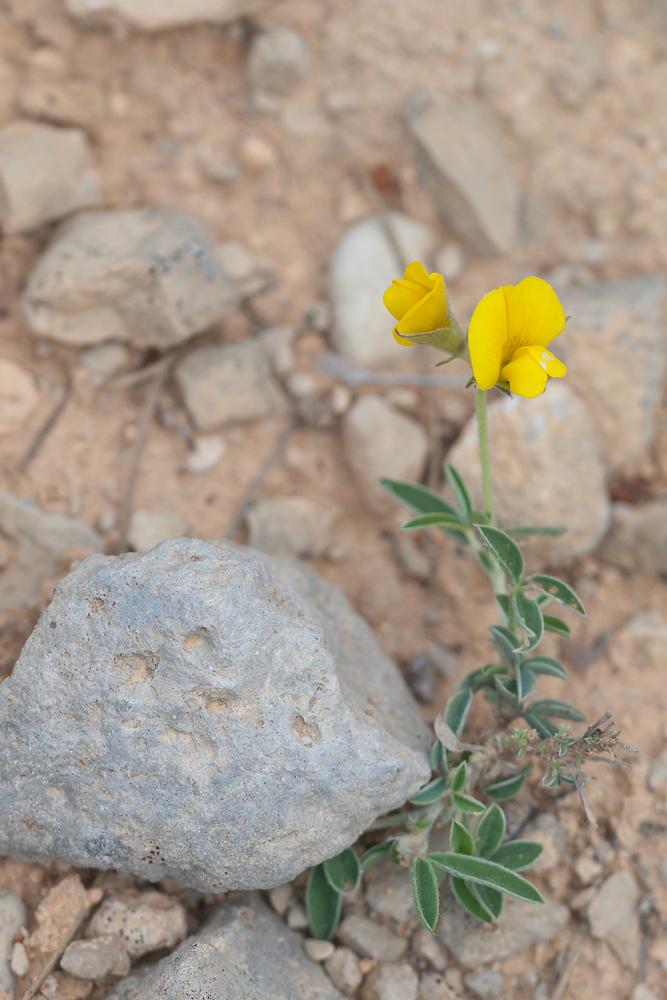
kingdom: Plantae
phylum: Tracheophyta
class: Magnoliopsida
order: Fabales
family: Fabaceae
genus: Argyrolobium
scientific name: Argyrolobium zanonii
